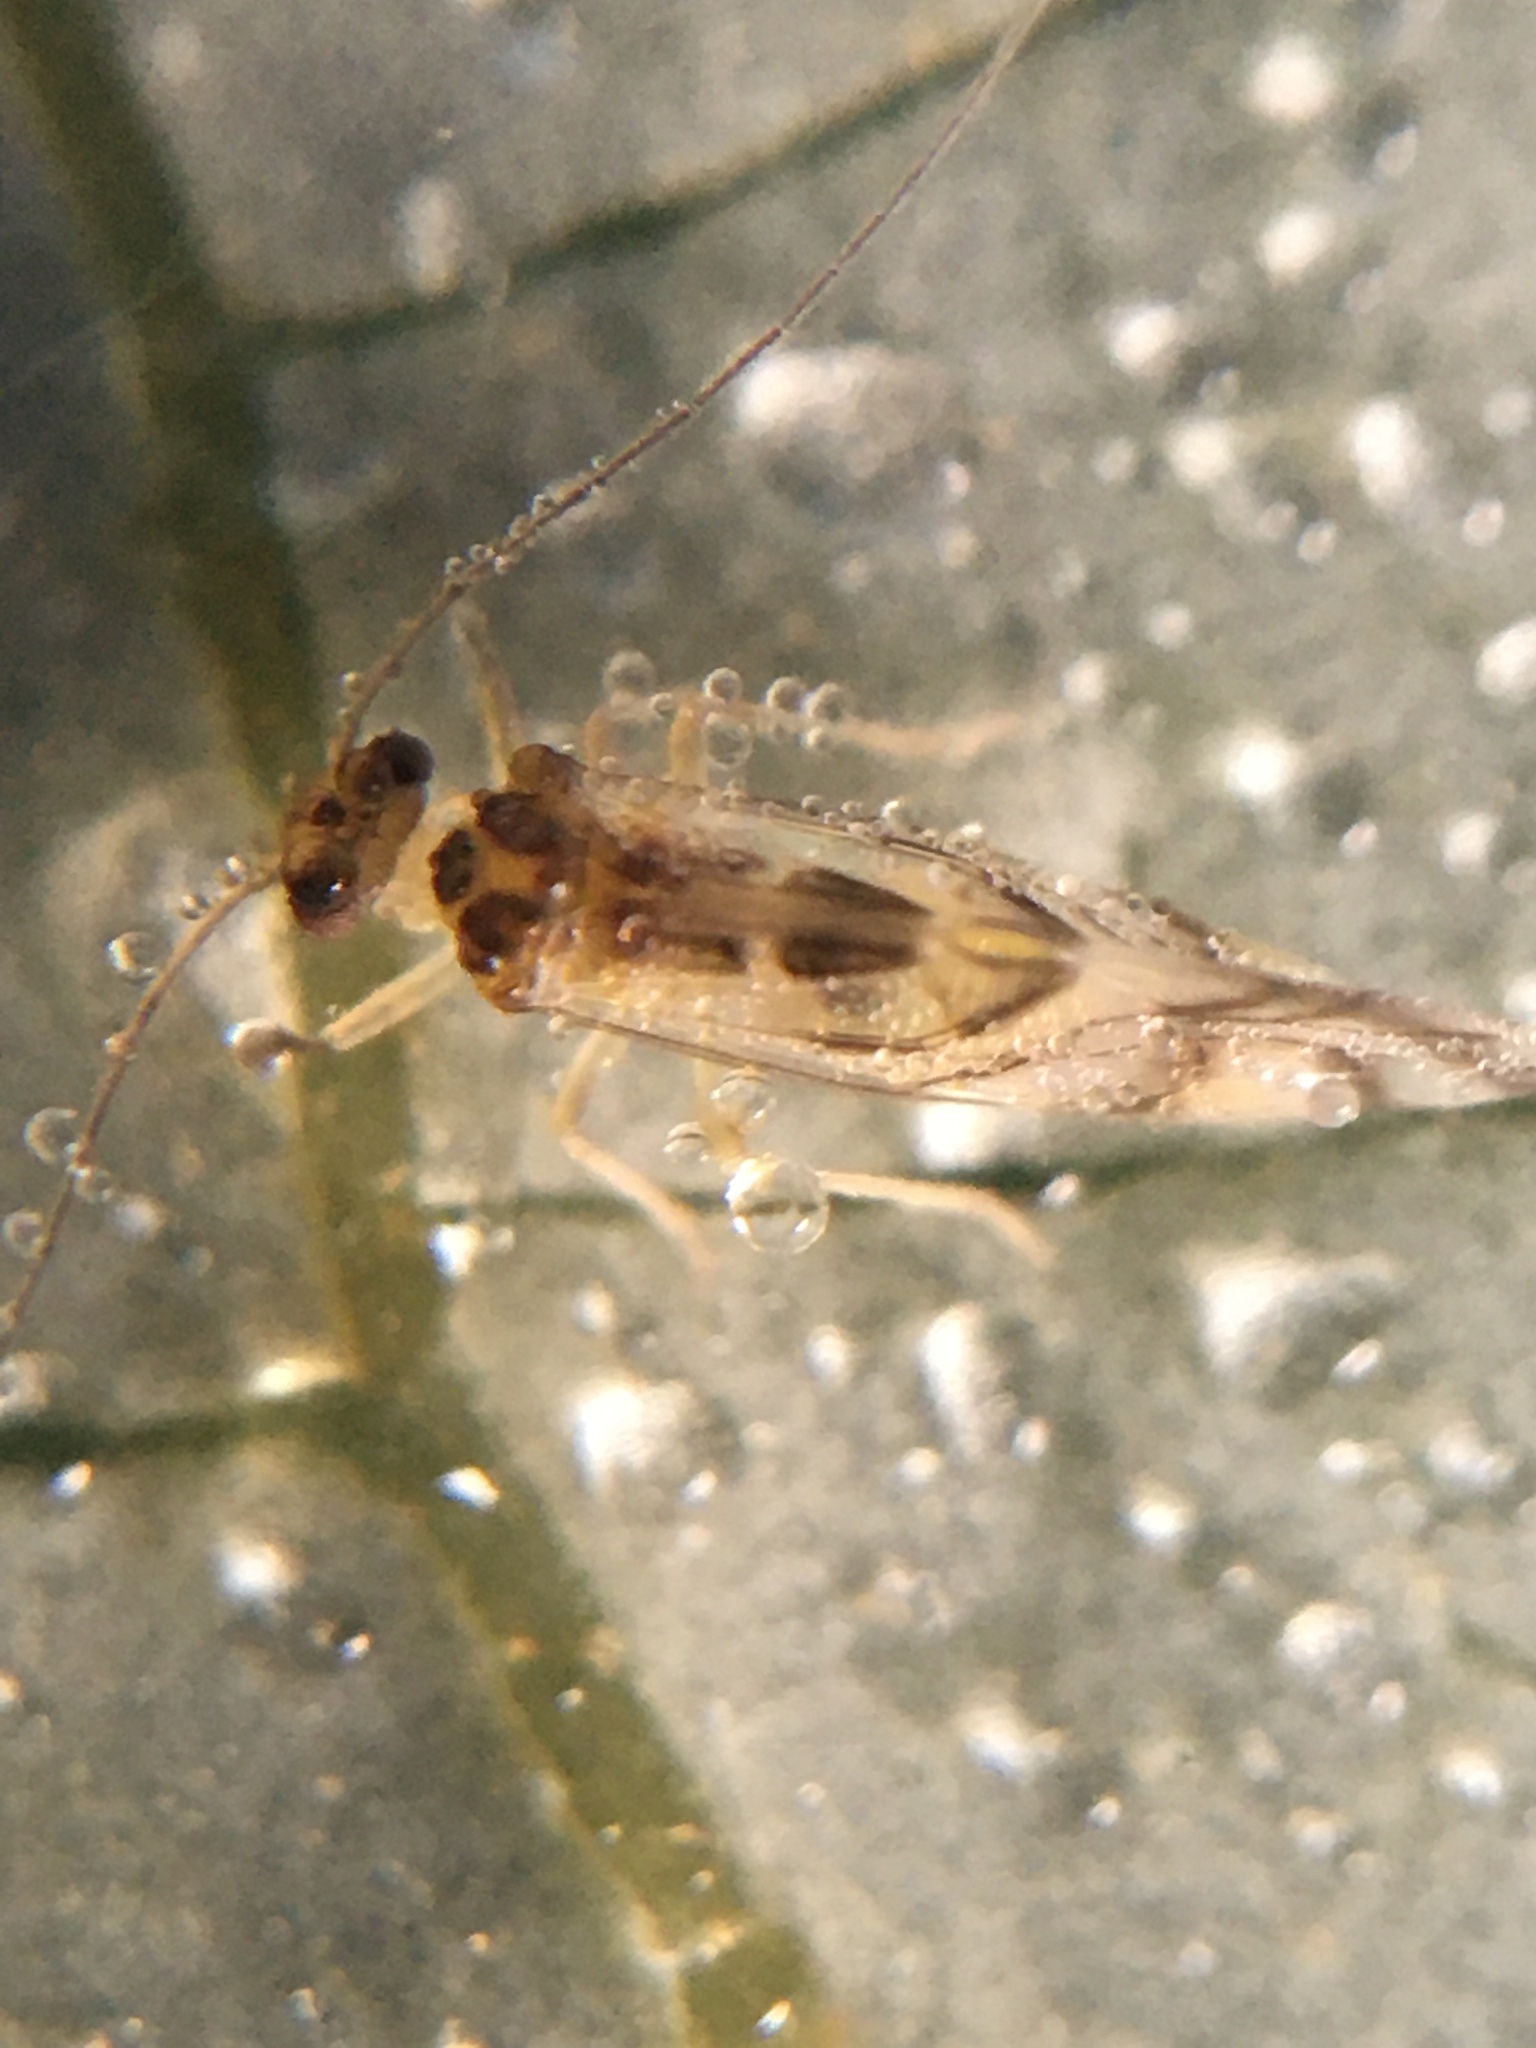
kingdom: Animalia
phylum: Arthropoda
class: Insecta
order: Psocodea
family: Stenopsocidae
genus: Graphopsocus
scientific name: Graphopsocus cruciatus
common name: Lizard bark louse
